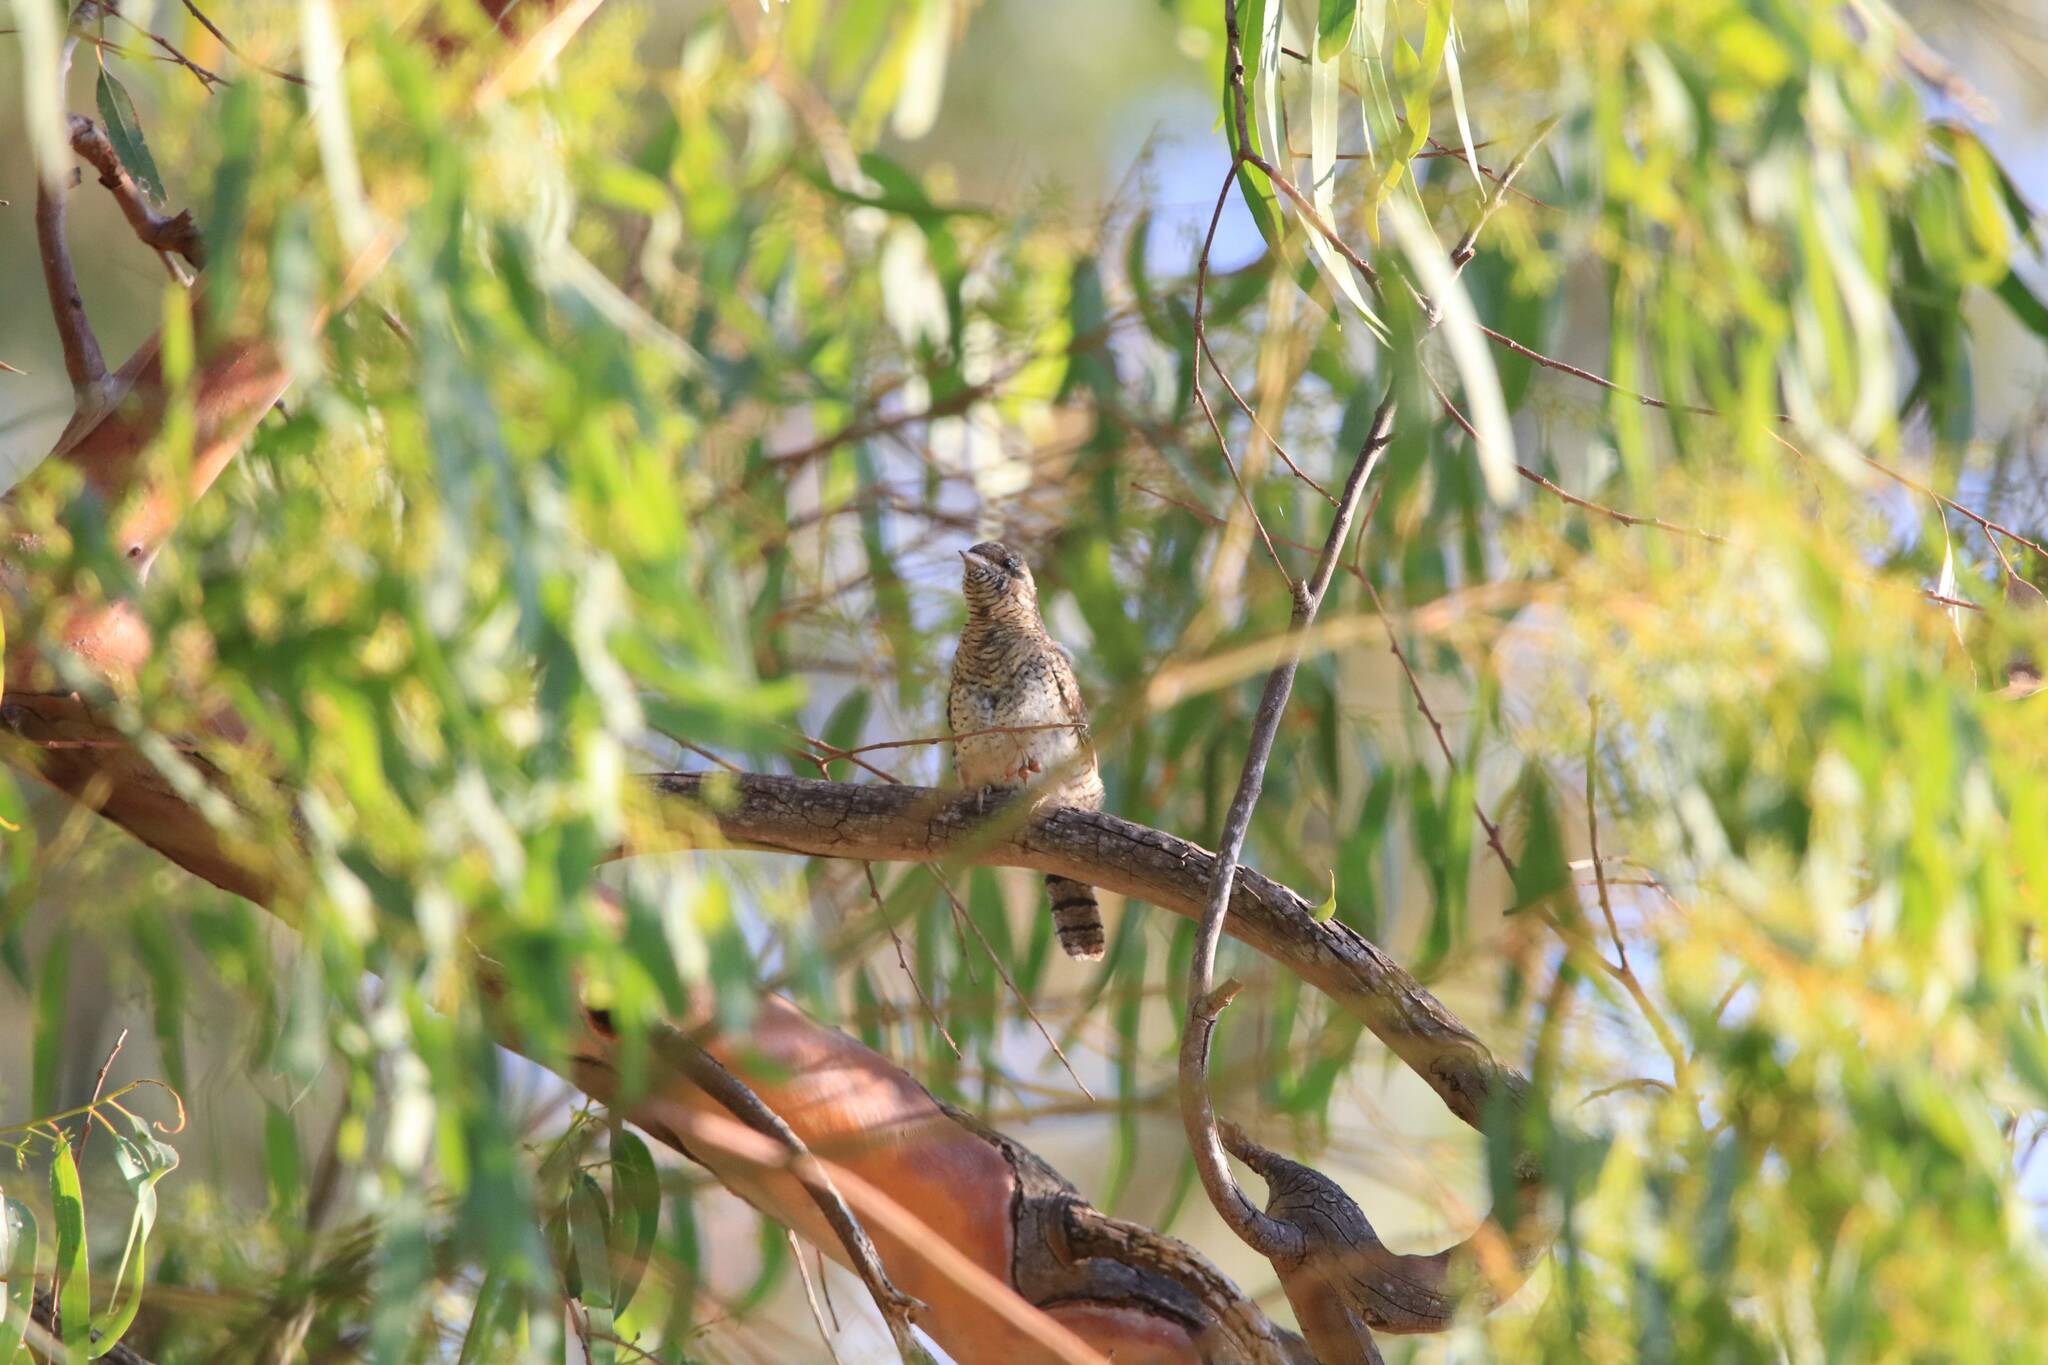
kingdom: Animalia
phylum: Chordata
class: Aves
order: Piciformes
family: Picidae
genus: Jynx
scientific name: Jynx torquilla
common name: Eurasian wryneck
